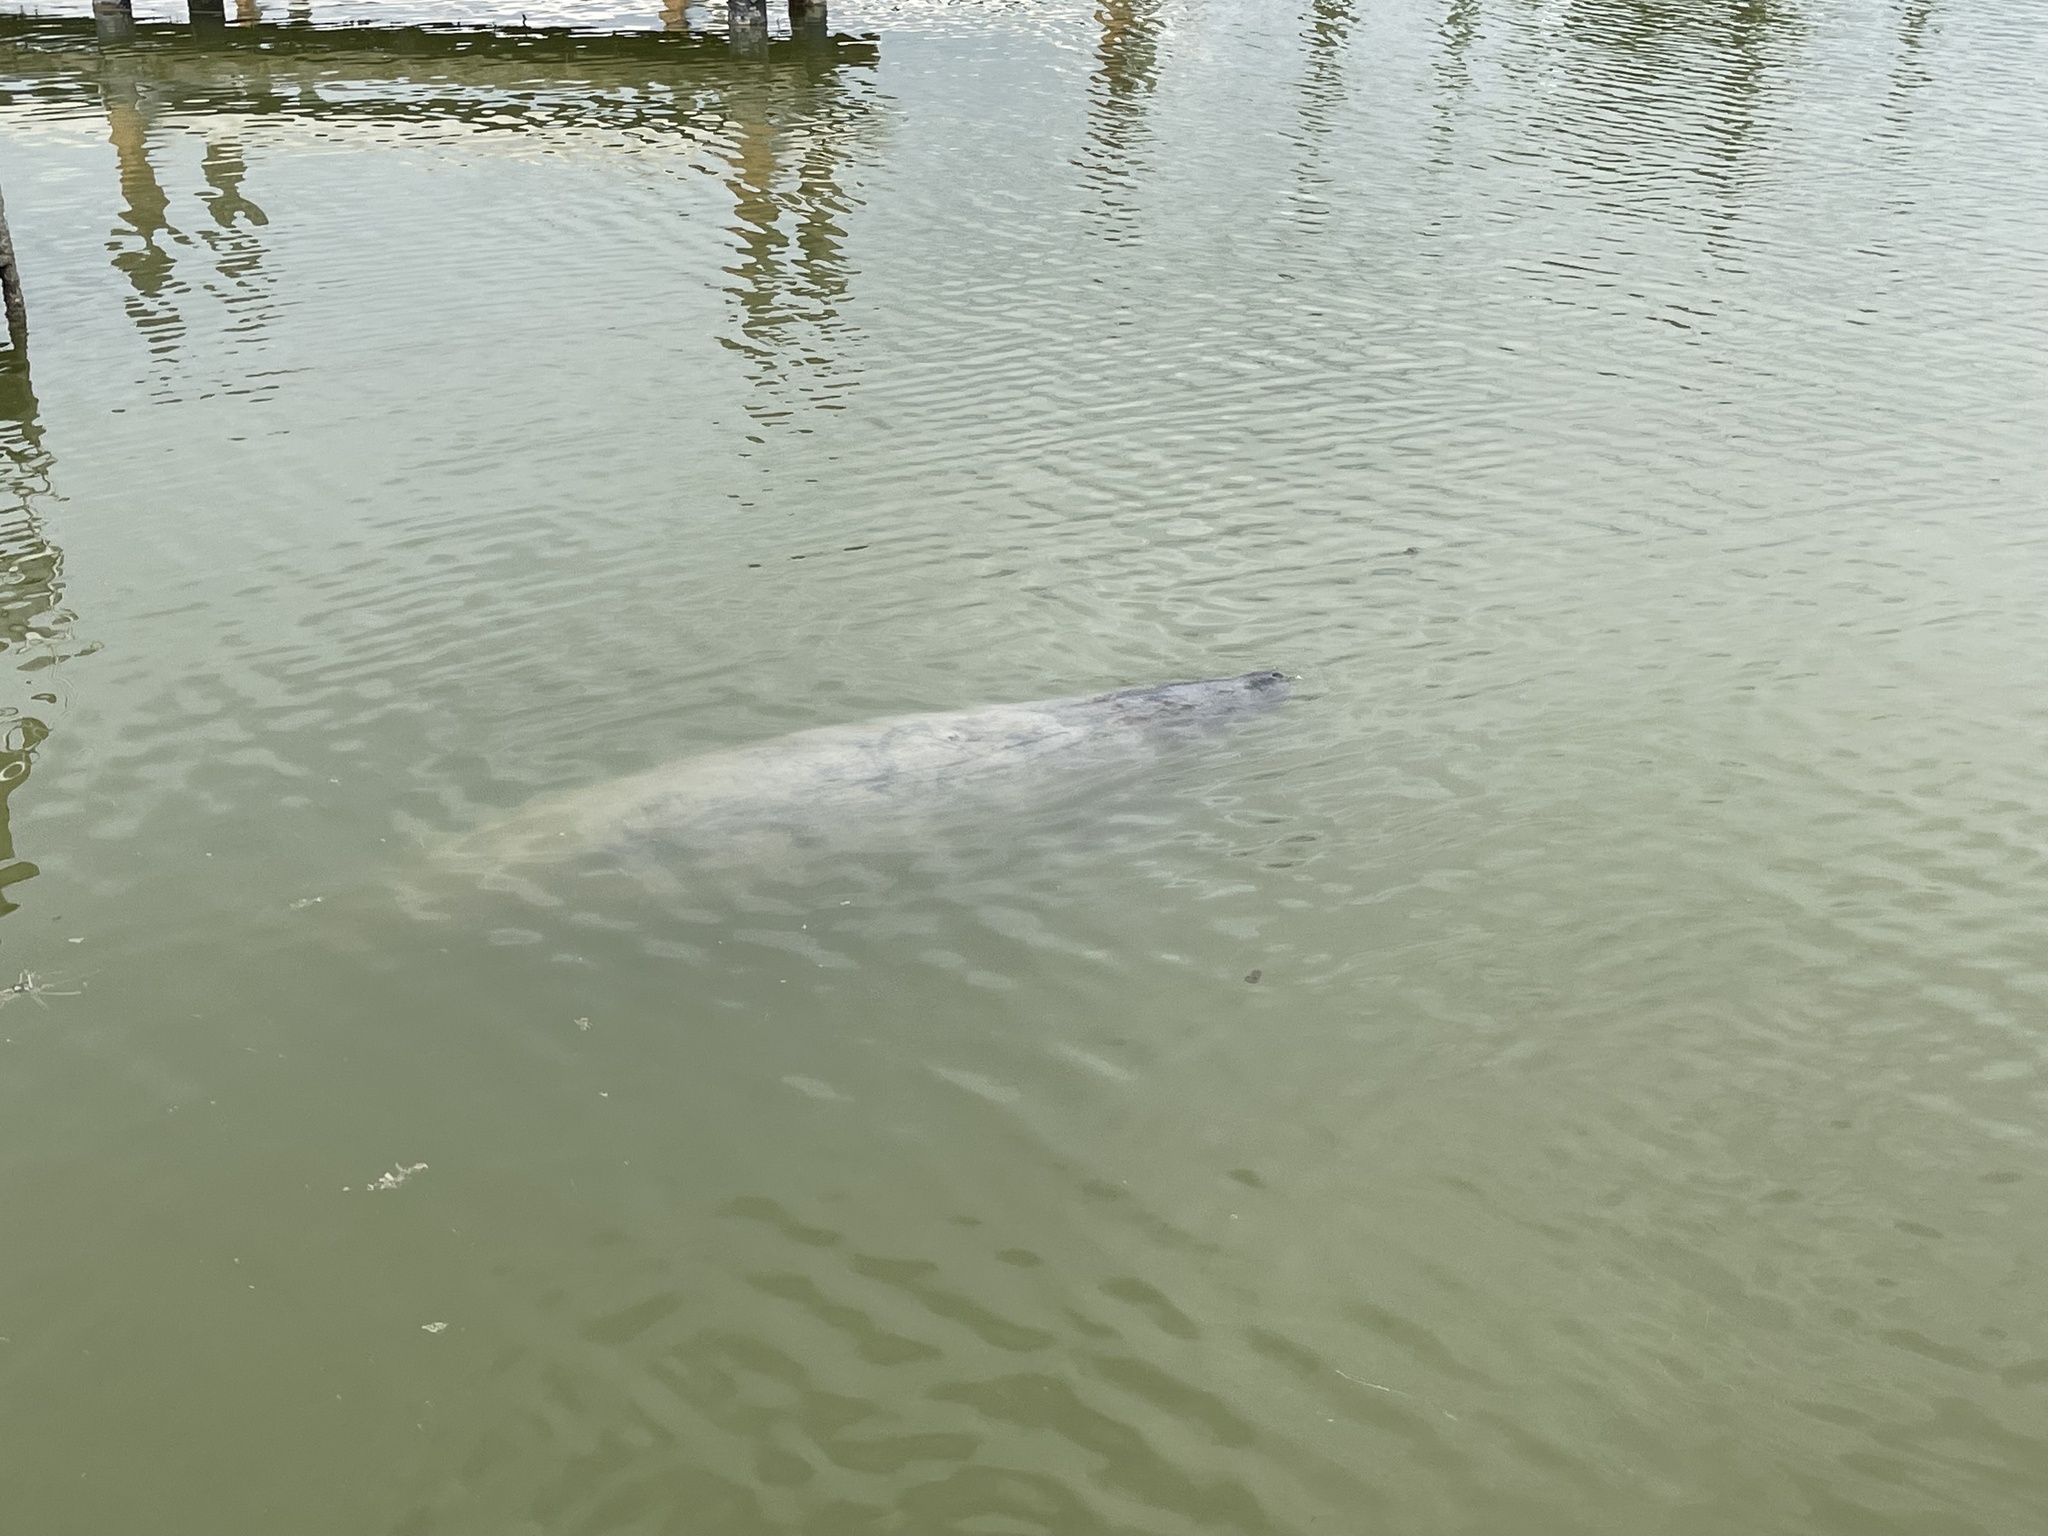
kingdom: Animalia
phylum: Chordata
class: Mammalia
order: Sirenia
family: Trichechidae
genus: Trichechus
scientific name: Trichechus manatus
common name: West indian manatee
